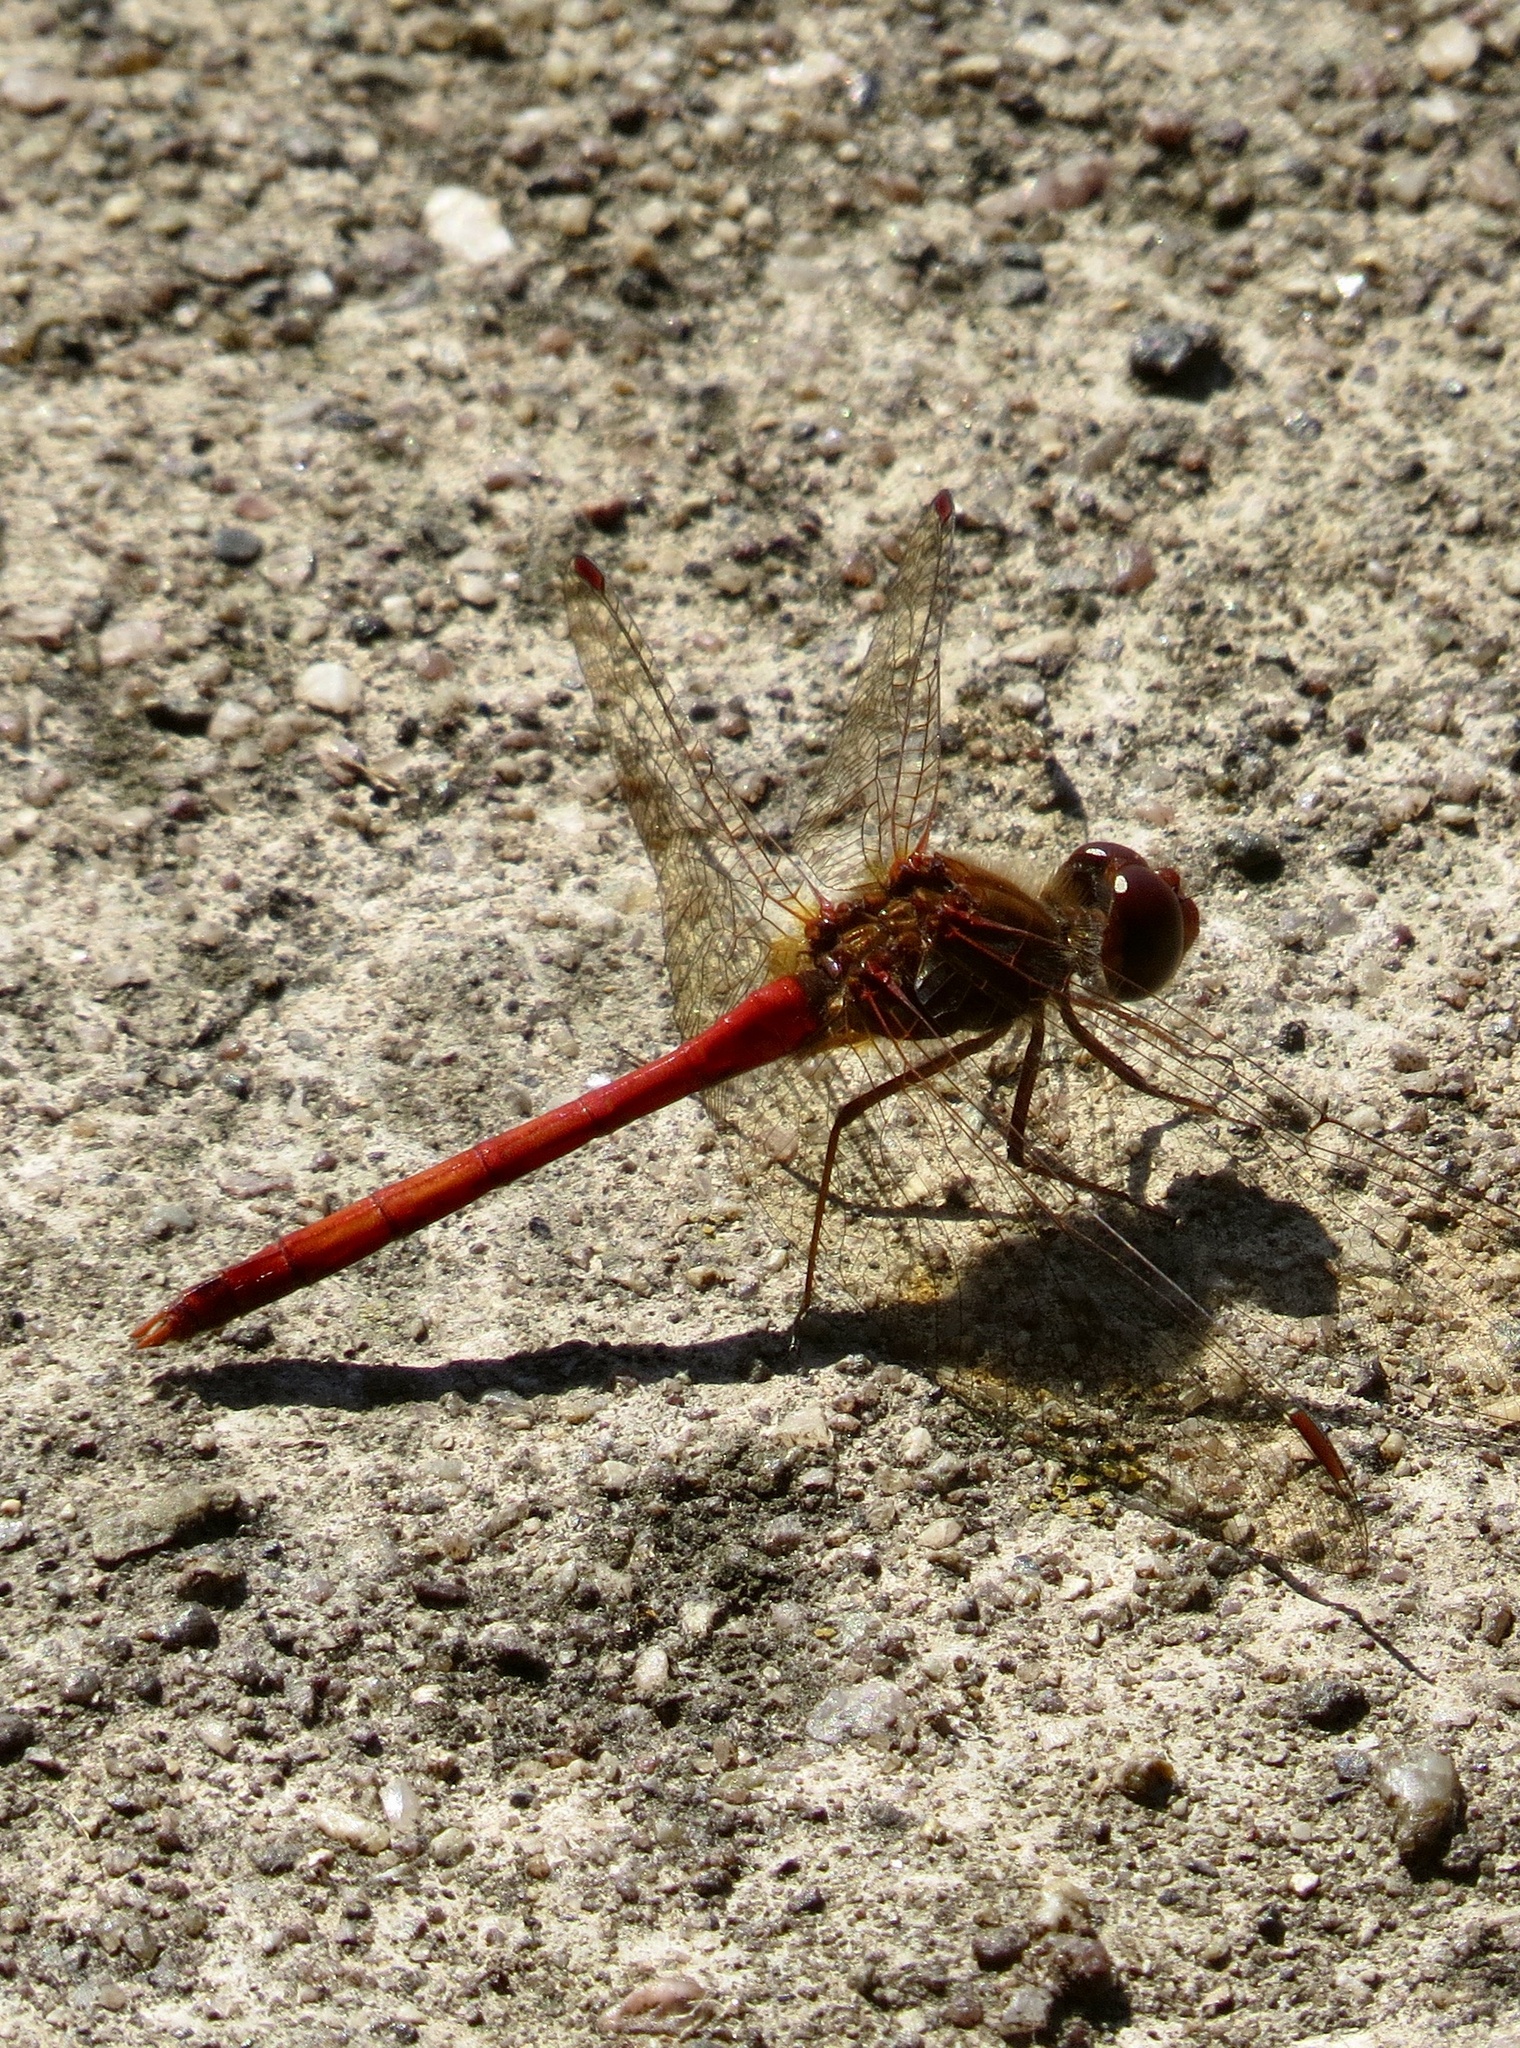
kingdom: Animalia
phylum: Arthropoda
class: Insecta
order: Odonata
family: Libellulidae
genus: Sympetrum
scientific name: Sympetrum vicinum
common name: Autumn meadowhawk
